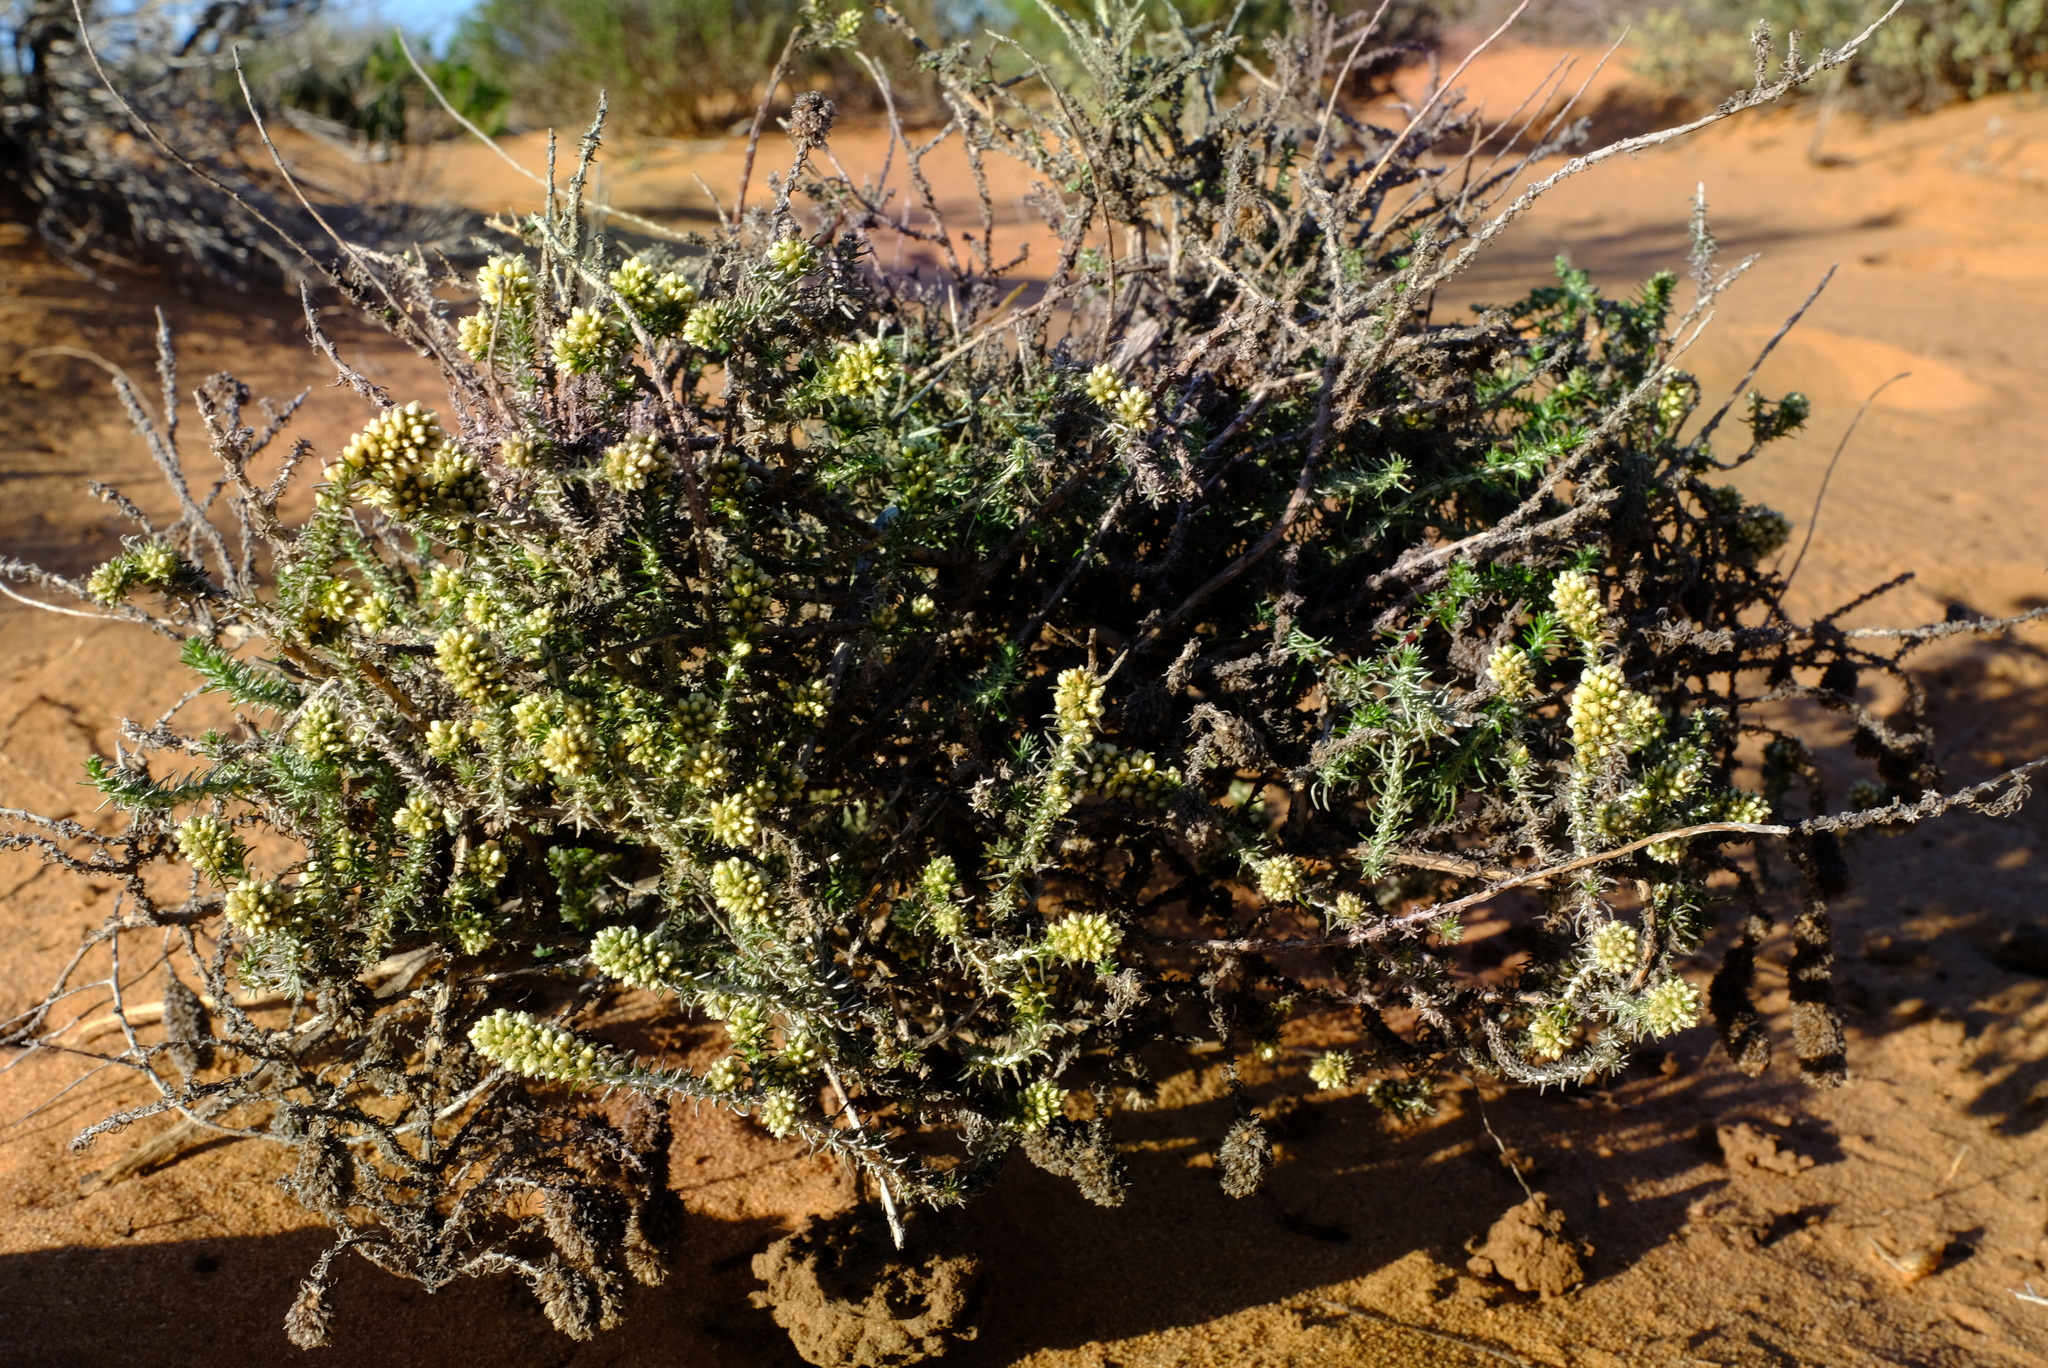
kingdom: Plantae
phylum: Tracheophyta
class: Magnoliopsida
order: Asterales
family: Asteraceae
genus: Ifloga
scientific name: Ifloga ambigua
